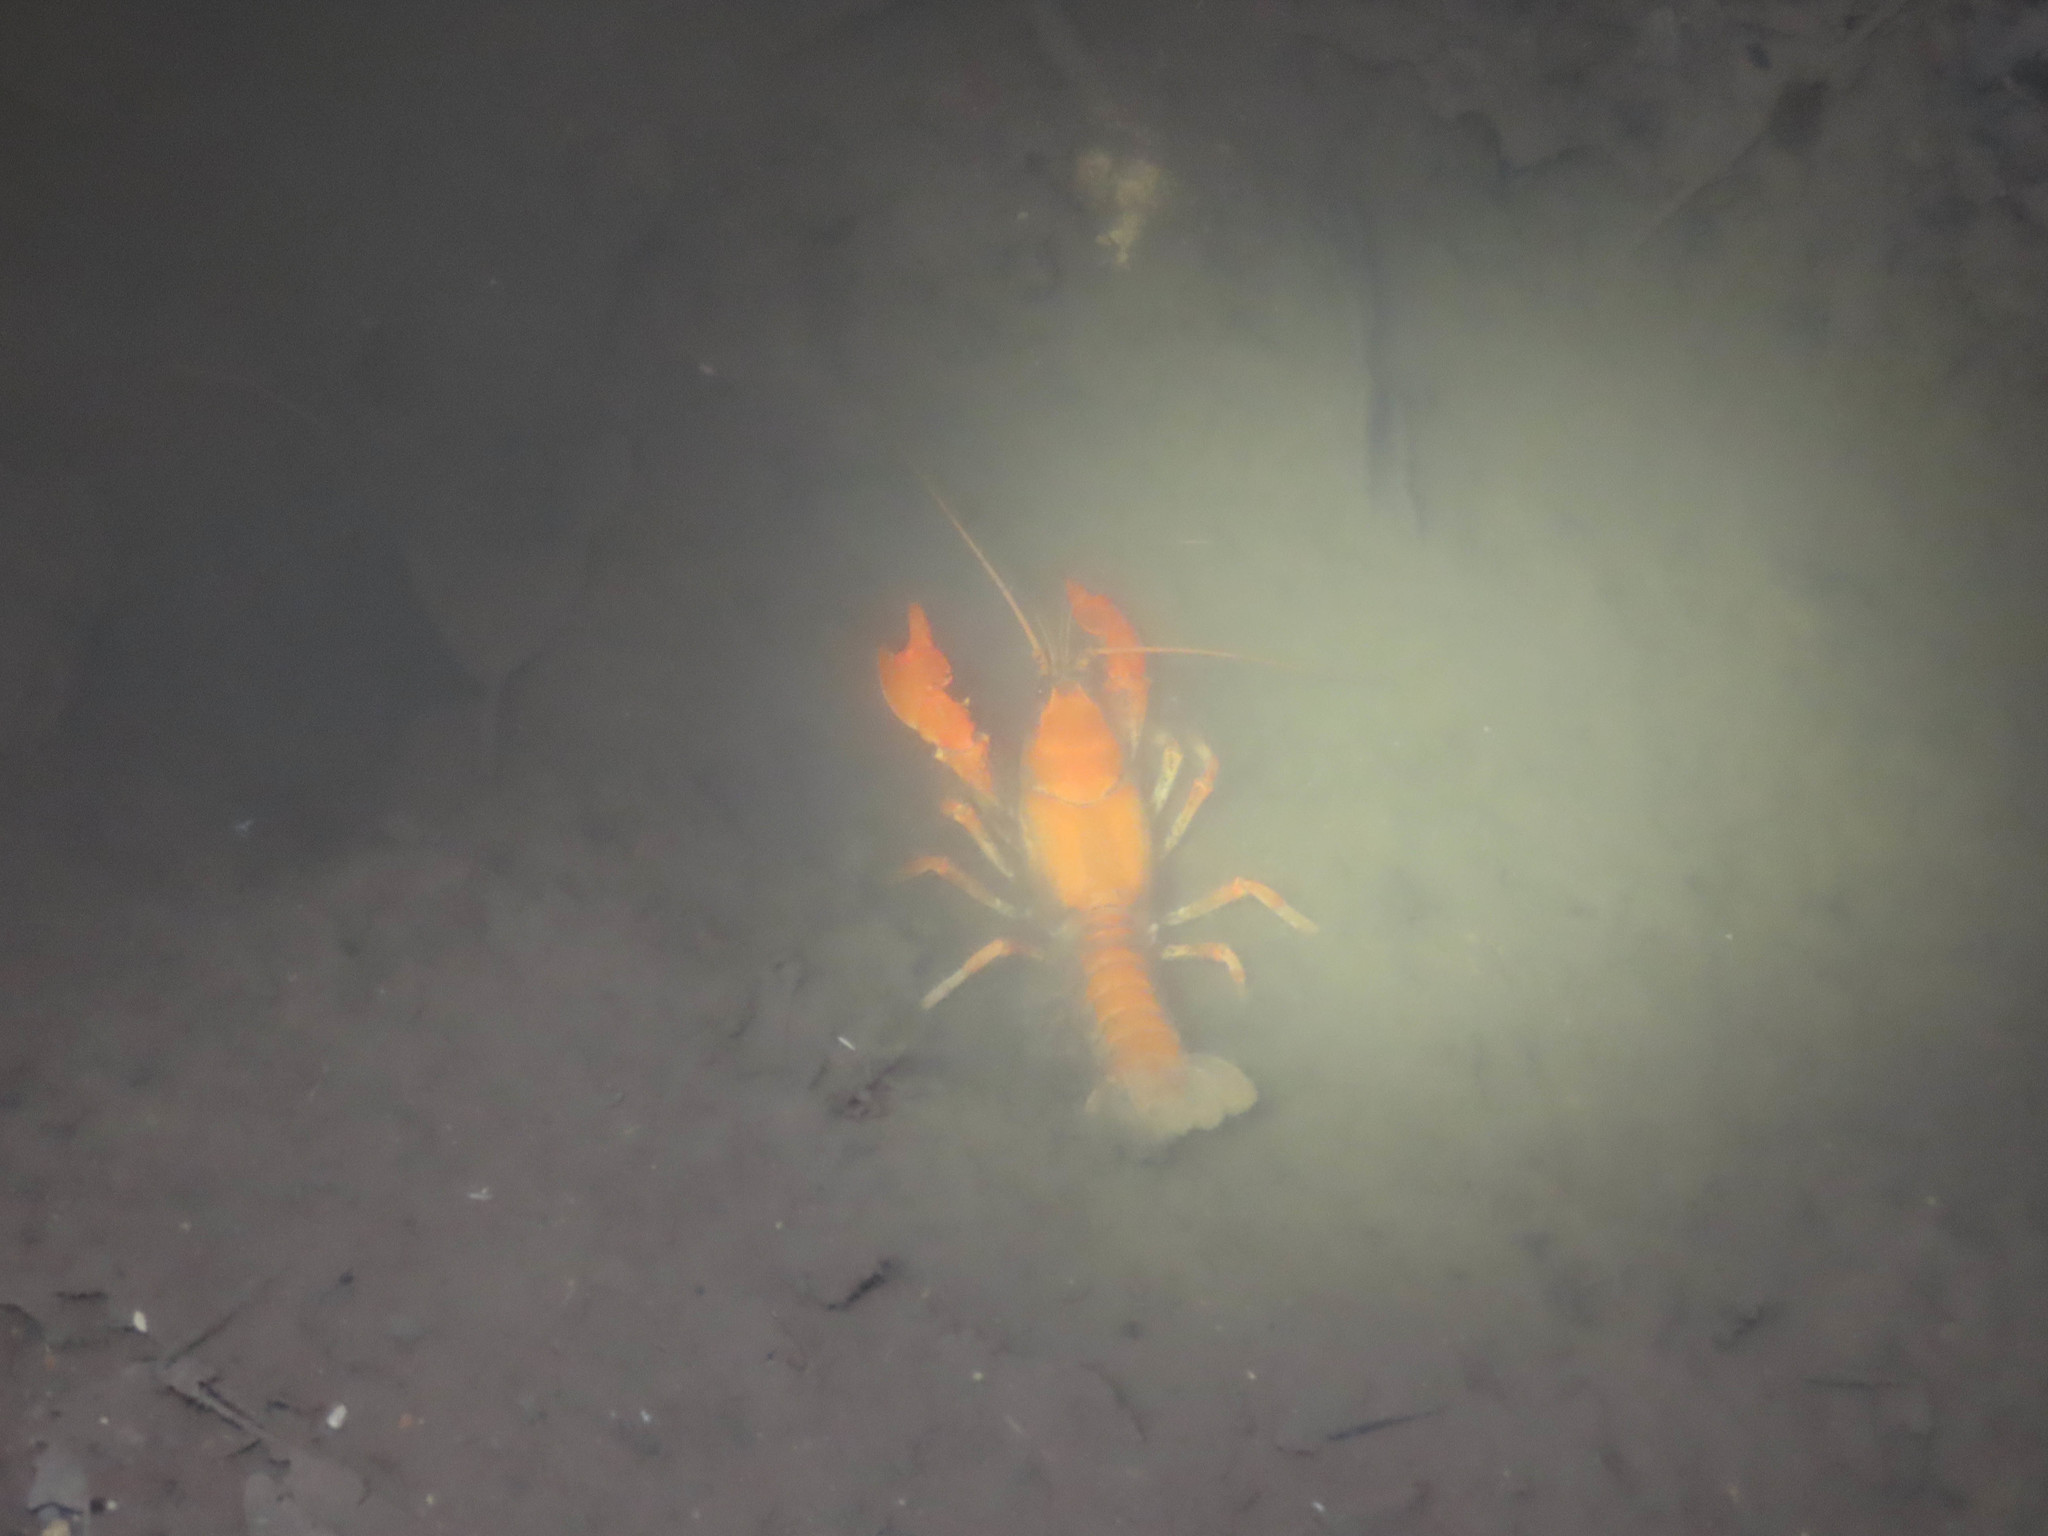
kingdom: Animalia
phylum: Arthropoda
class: Malacostraca
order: Decapoda
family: Cambaridae
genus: Cambarus
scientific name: Cambarus dubius
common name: Upland burrowing crayfish
